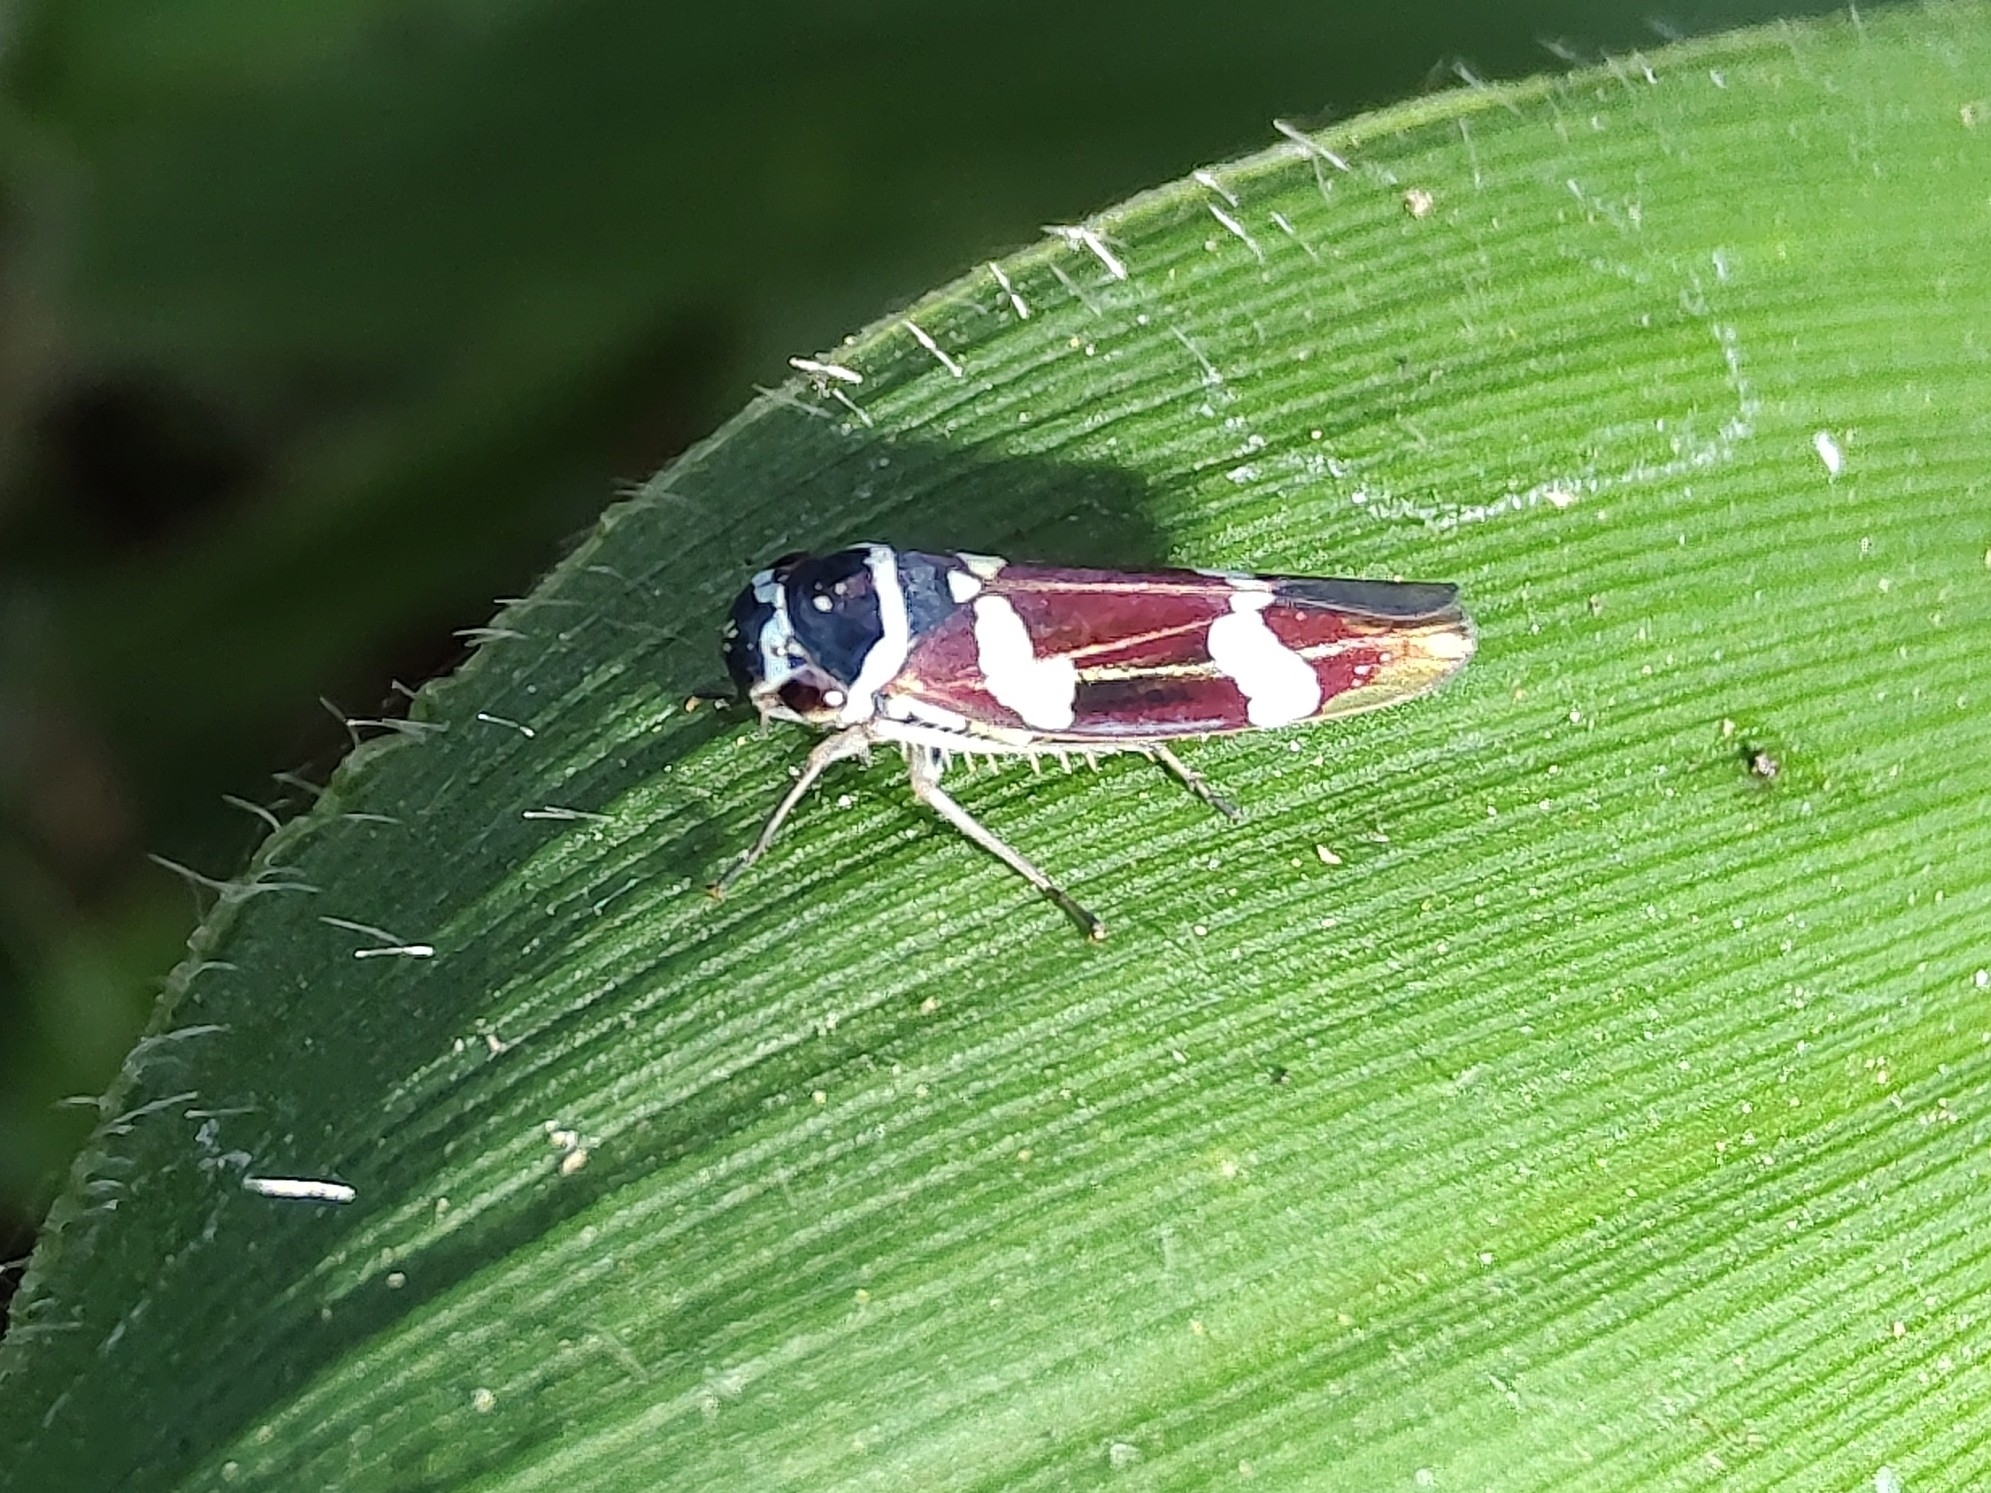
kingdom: Animalia
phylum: Arthropoda
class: Insecta
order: Hemiptera
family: Cicadellidae
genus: Macugonalia
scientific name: Macugonalia leucomelas
